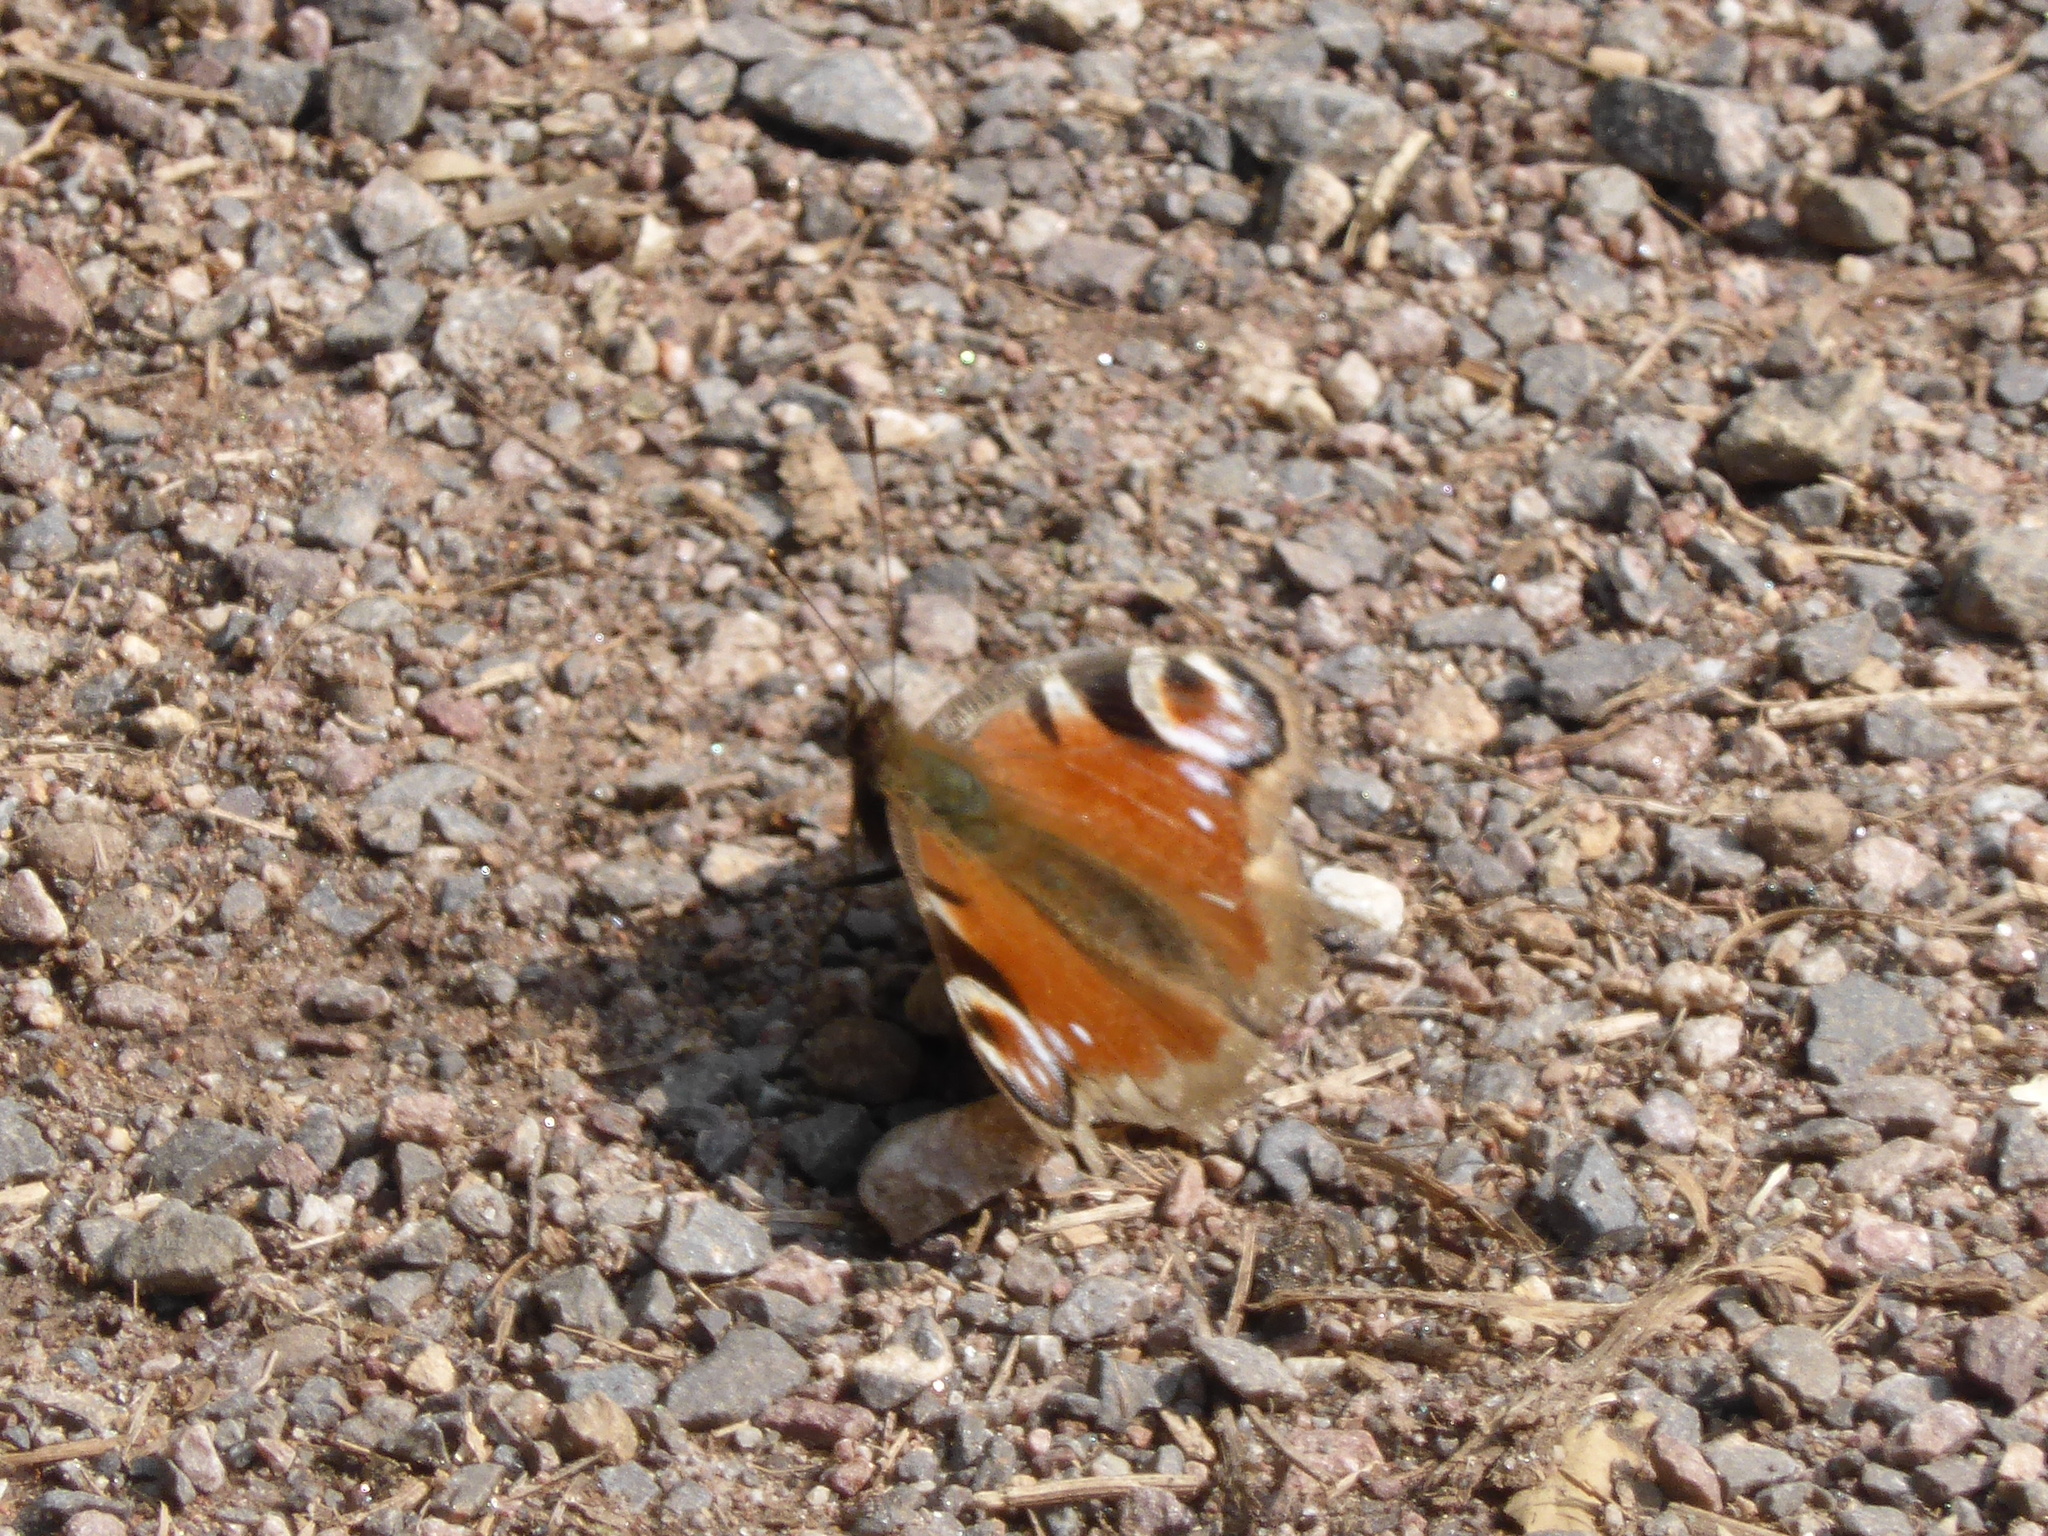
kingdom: Animalia
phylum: Arthropoda
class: Insecta
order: Lepidoptera
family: Nymphalidae
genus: Aglais
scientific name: Aglais io
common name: Peacock
